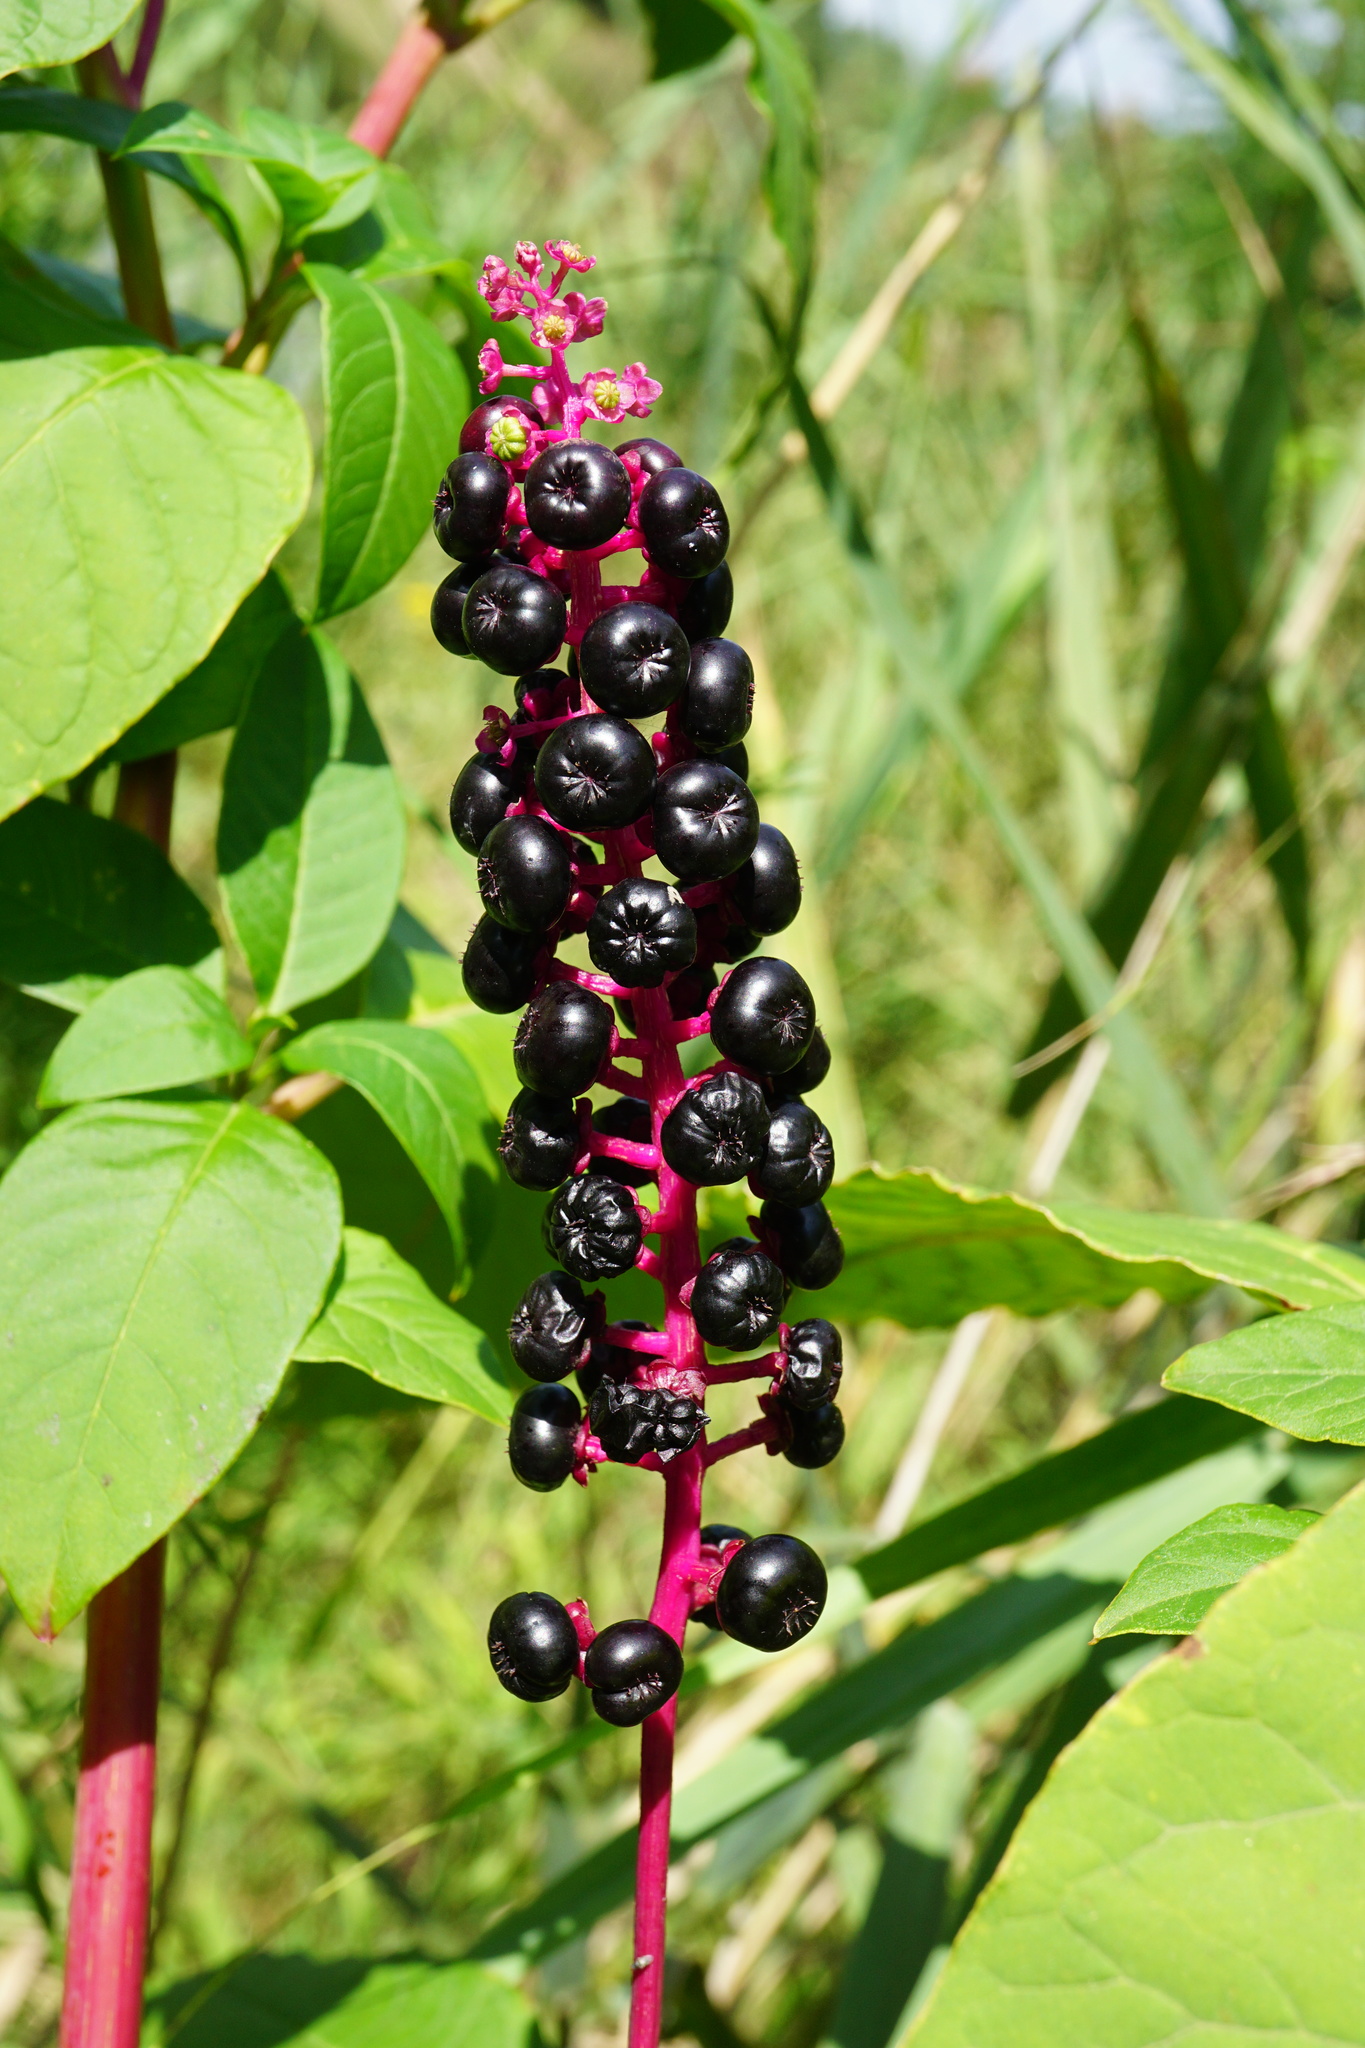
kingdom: Plantae
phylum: Tracheophyta
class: Magnoliopsida
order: Caryophyllales
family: Phytolaccaceae
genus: Phytolacca
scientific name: Phytolacca americana
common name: American pokeweed
